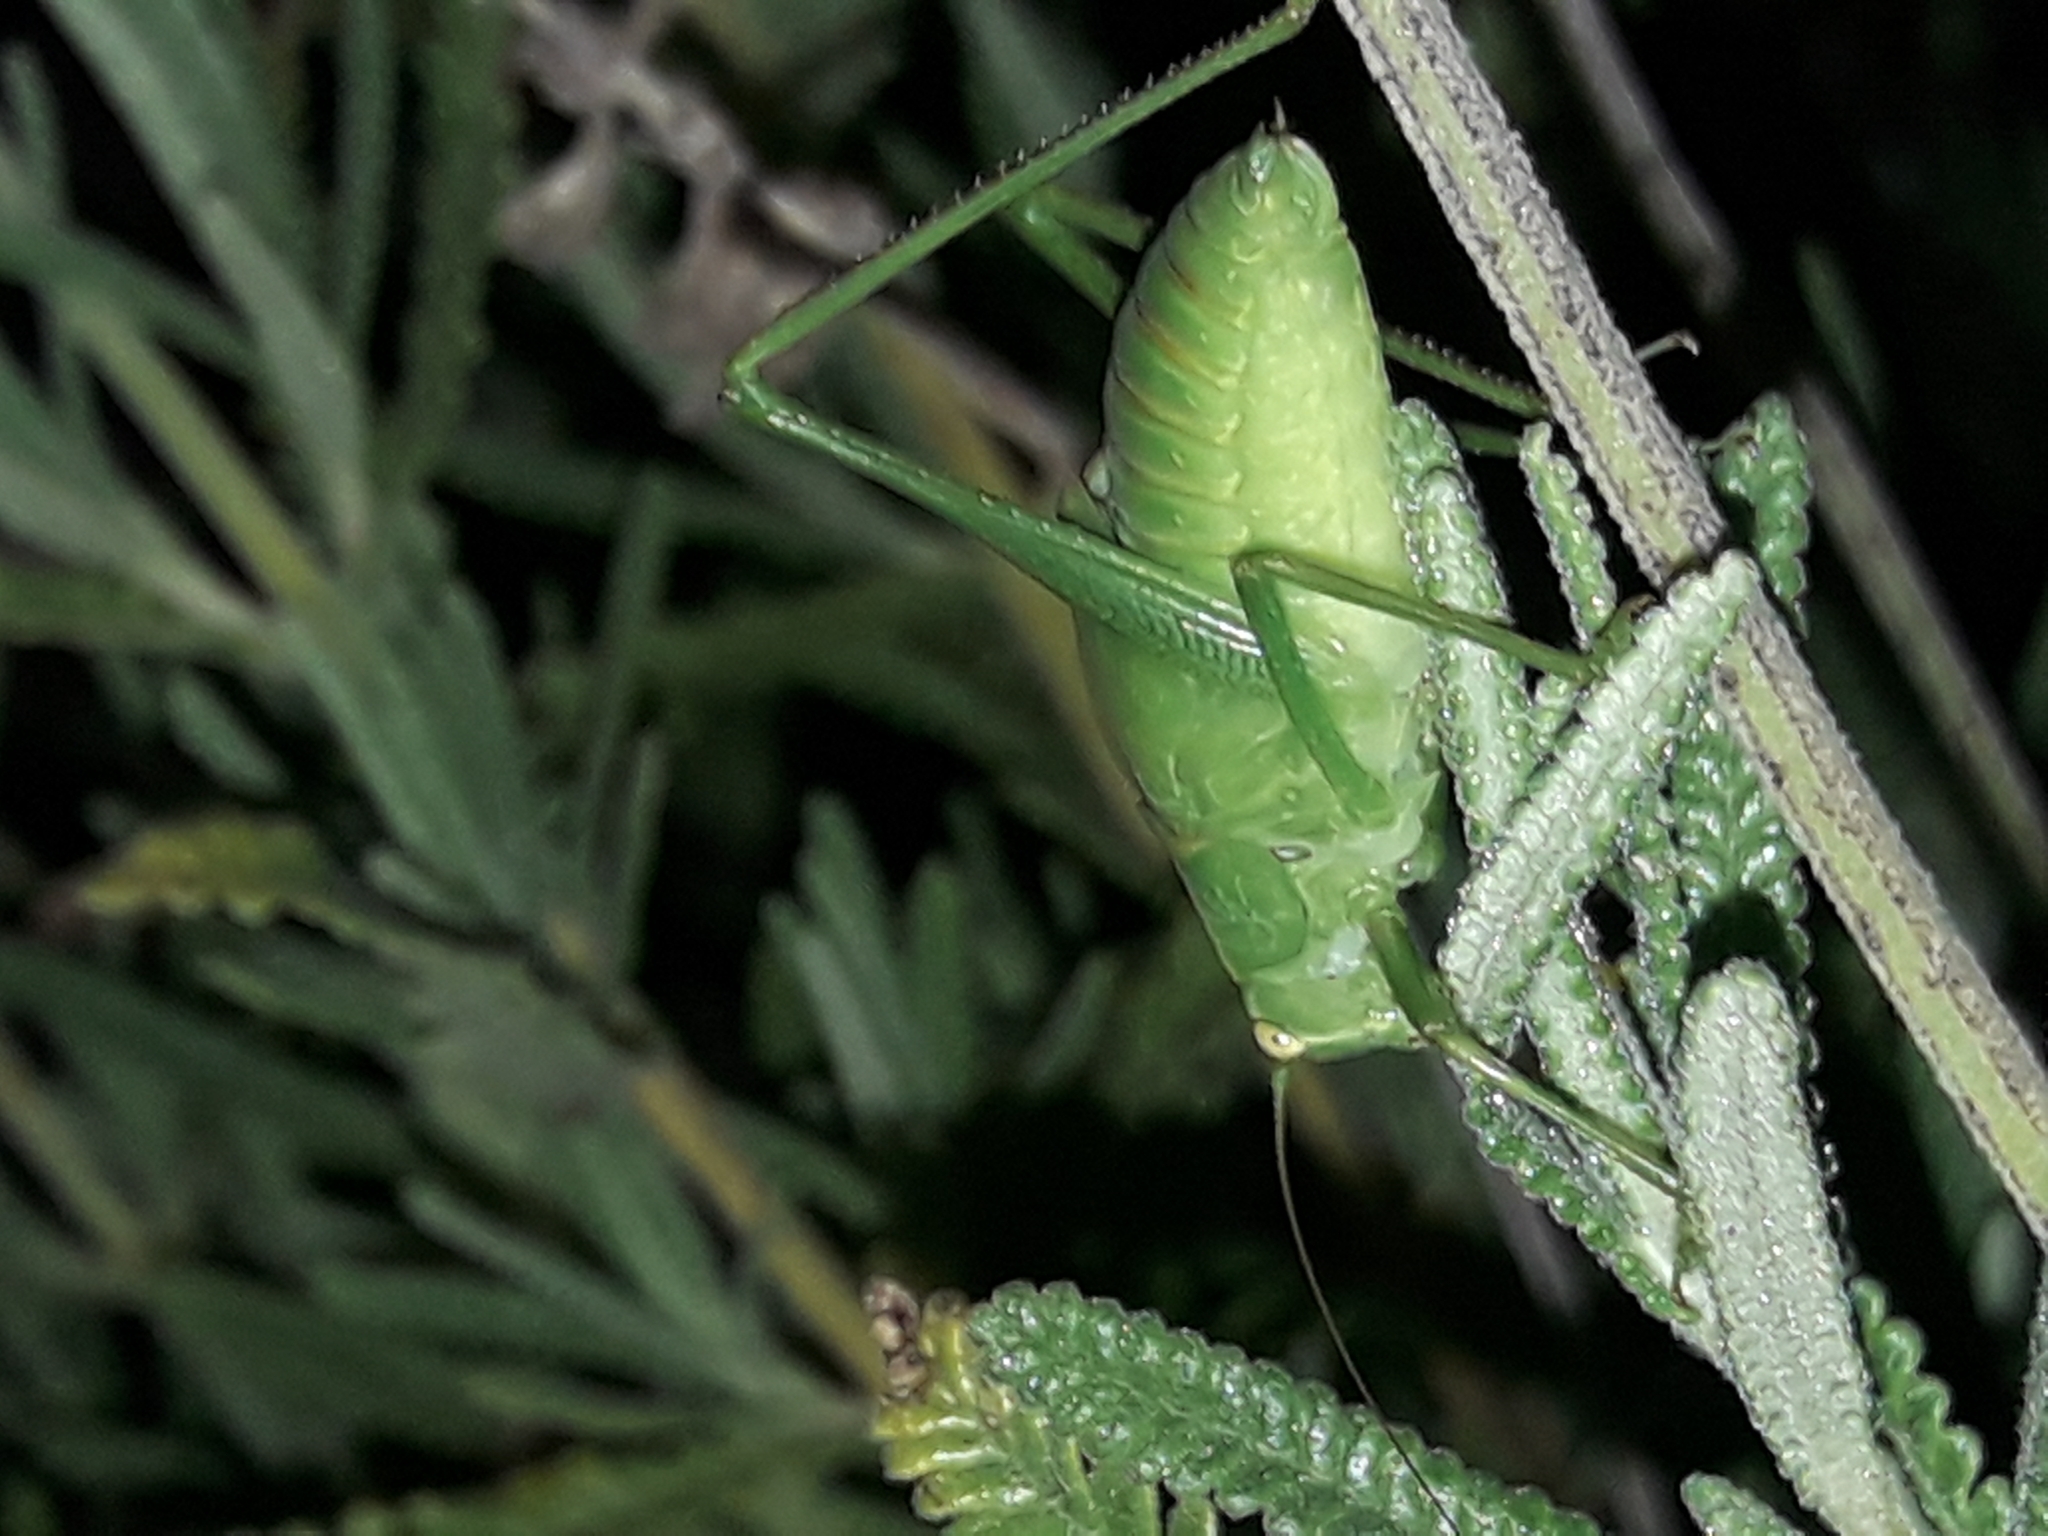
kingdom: Animalia
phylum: Arthropoda
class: Insecta
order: Orthoptera
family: Tettigoniidae
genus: Caedicia
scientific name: Caedicia simplex
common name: Common garden katydid
